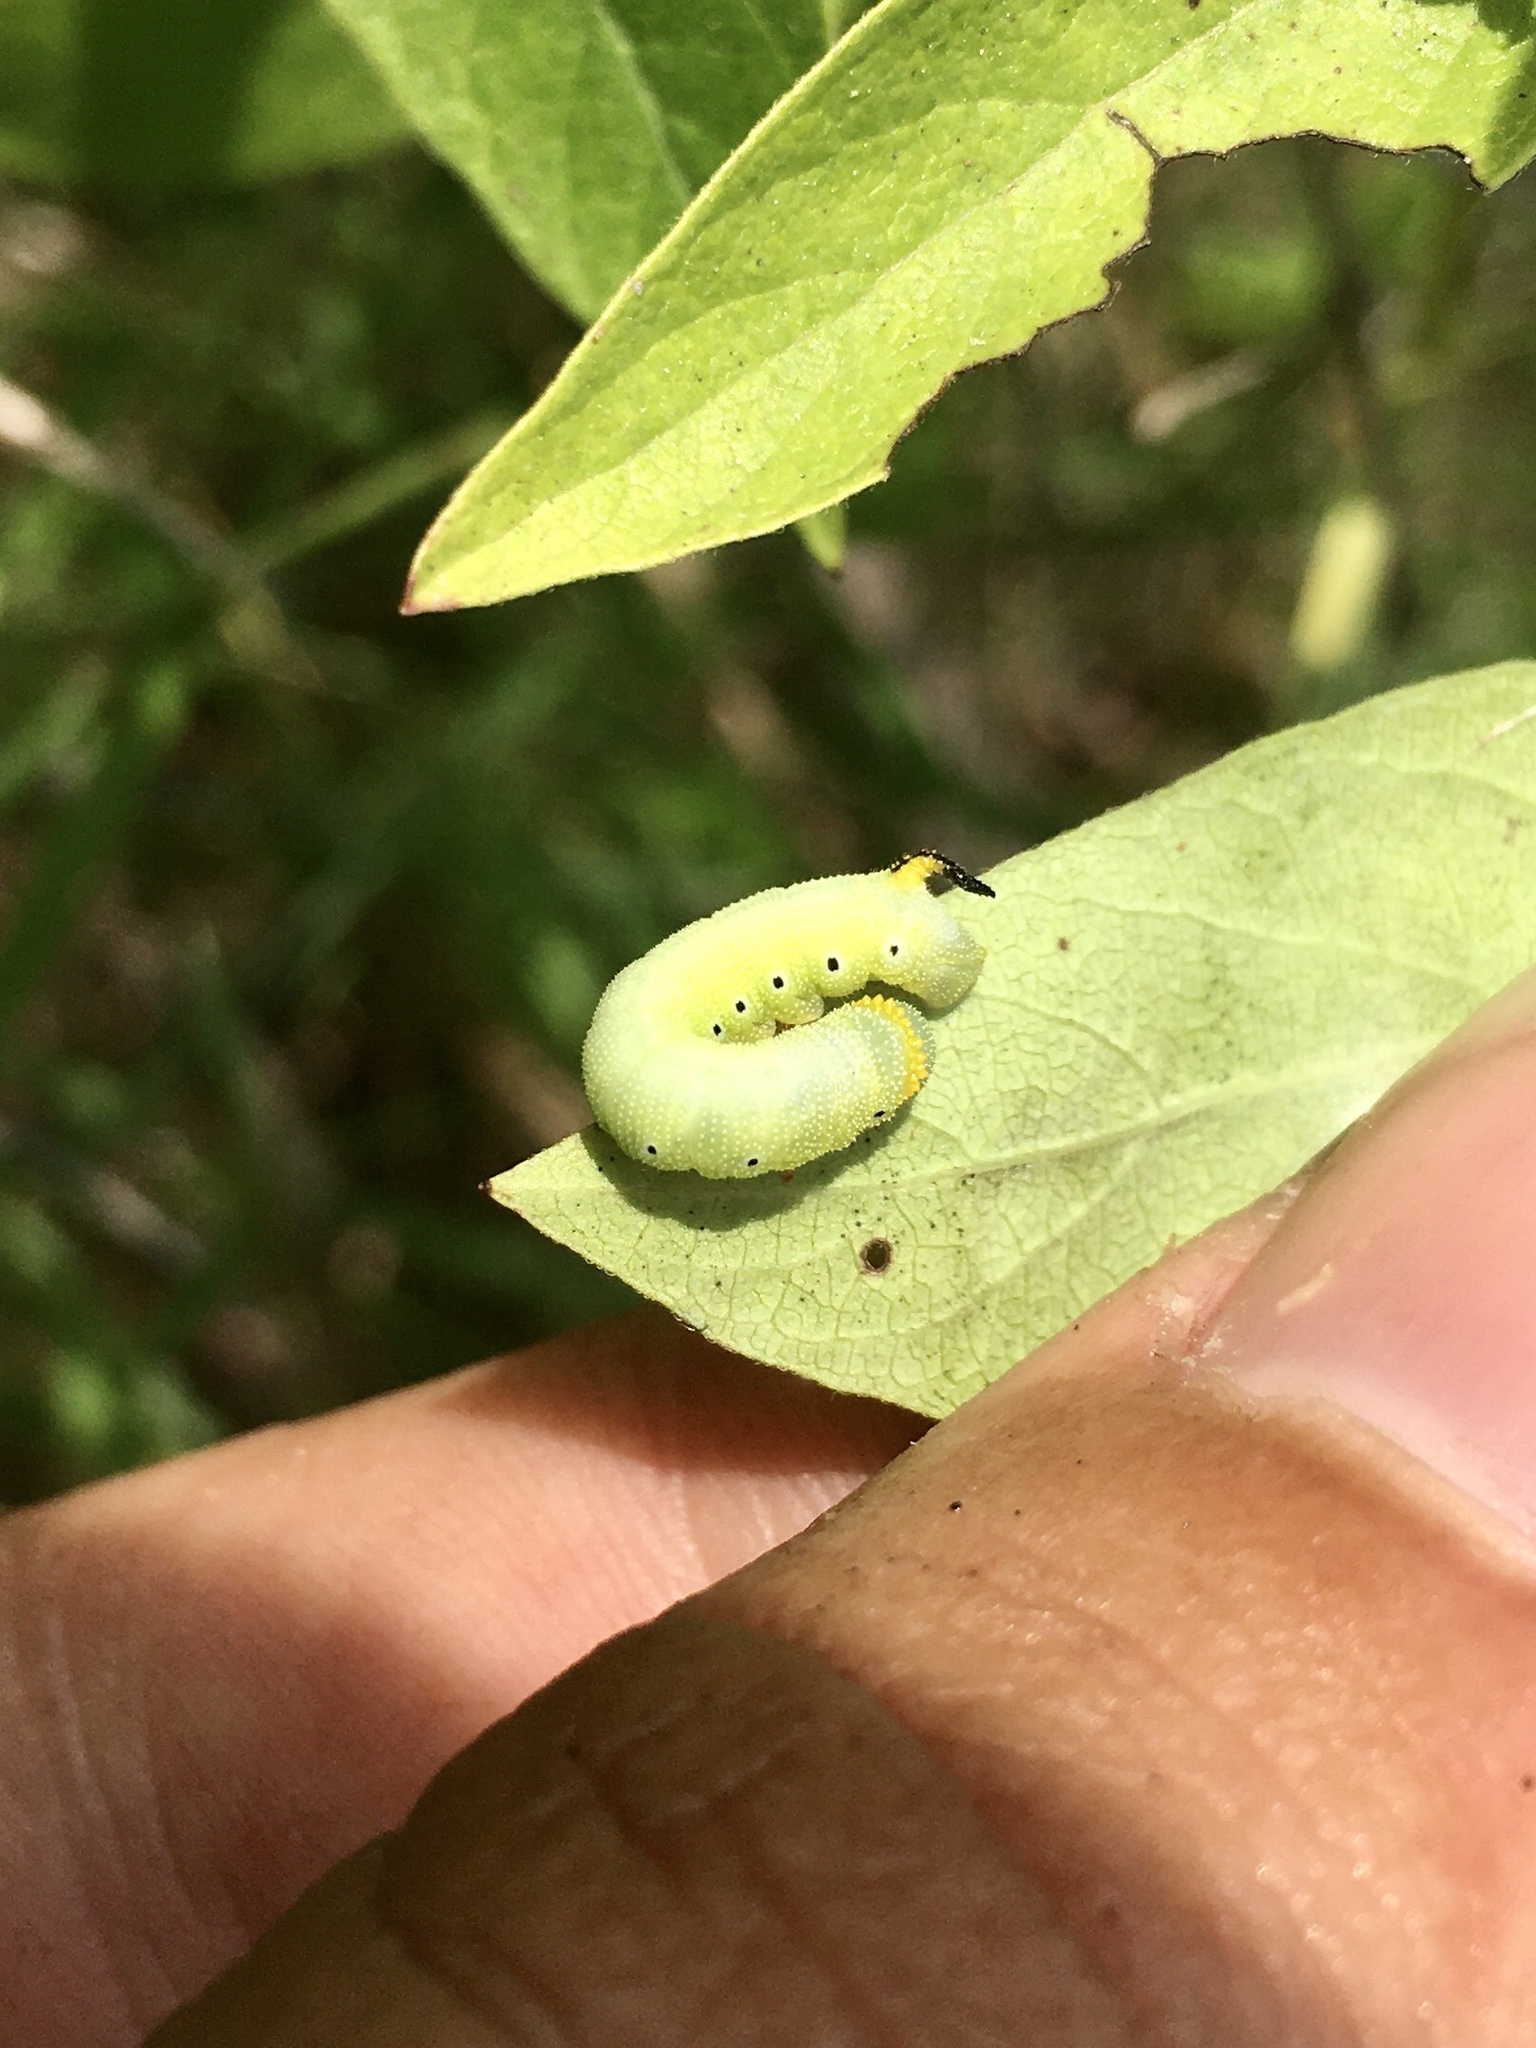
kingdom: Animalia
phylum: Arthropoda
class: Insecta
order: Lepidoptera
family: Sphingidae
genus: Hemaris
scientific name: Hemaris diffinis
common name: Bumblebee moth
